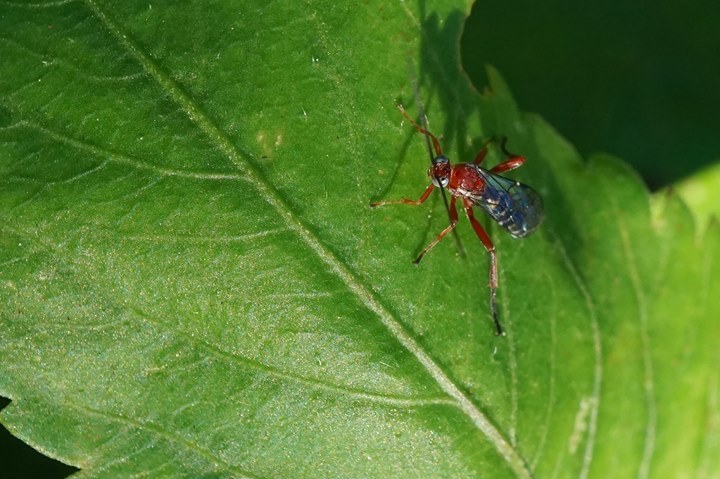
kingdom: Animalia
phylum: Arthropoda
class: Insecta
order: Hymenoptera
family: Ichneumonidae
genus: Pimpla
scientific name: Pimpla marginella
